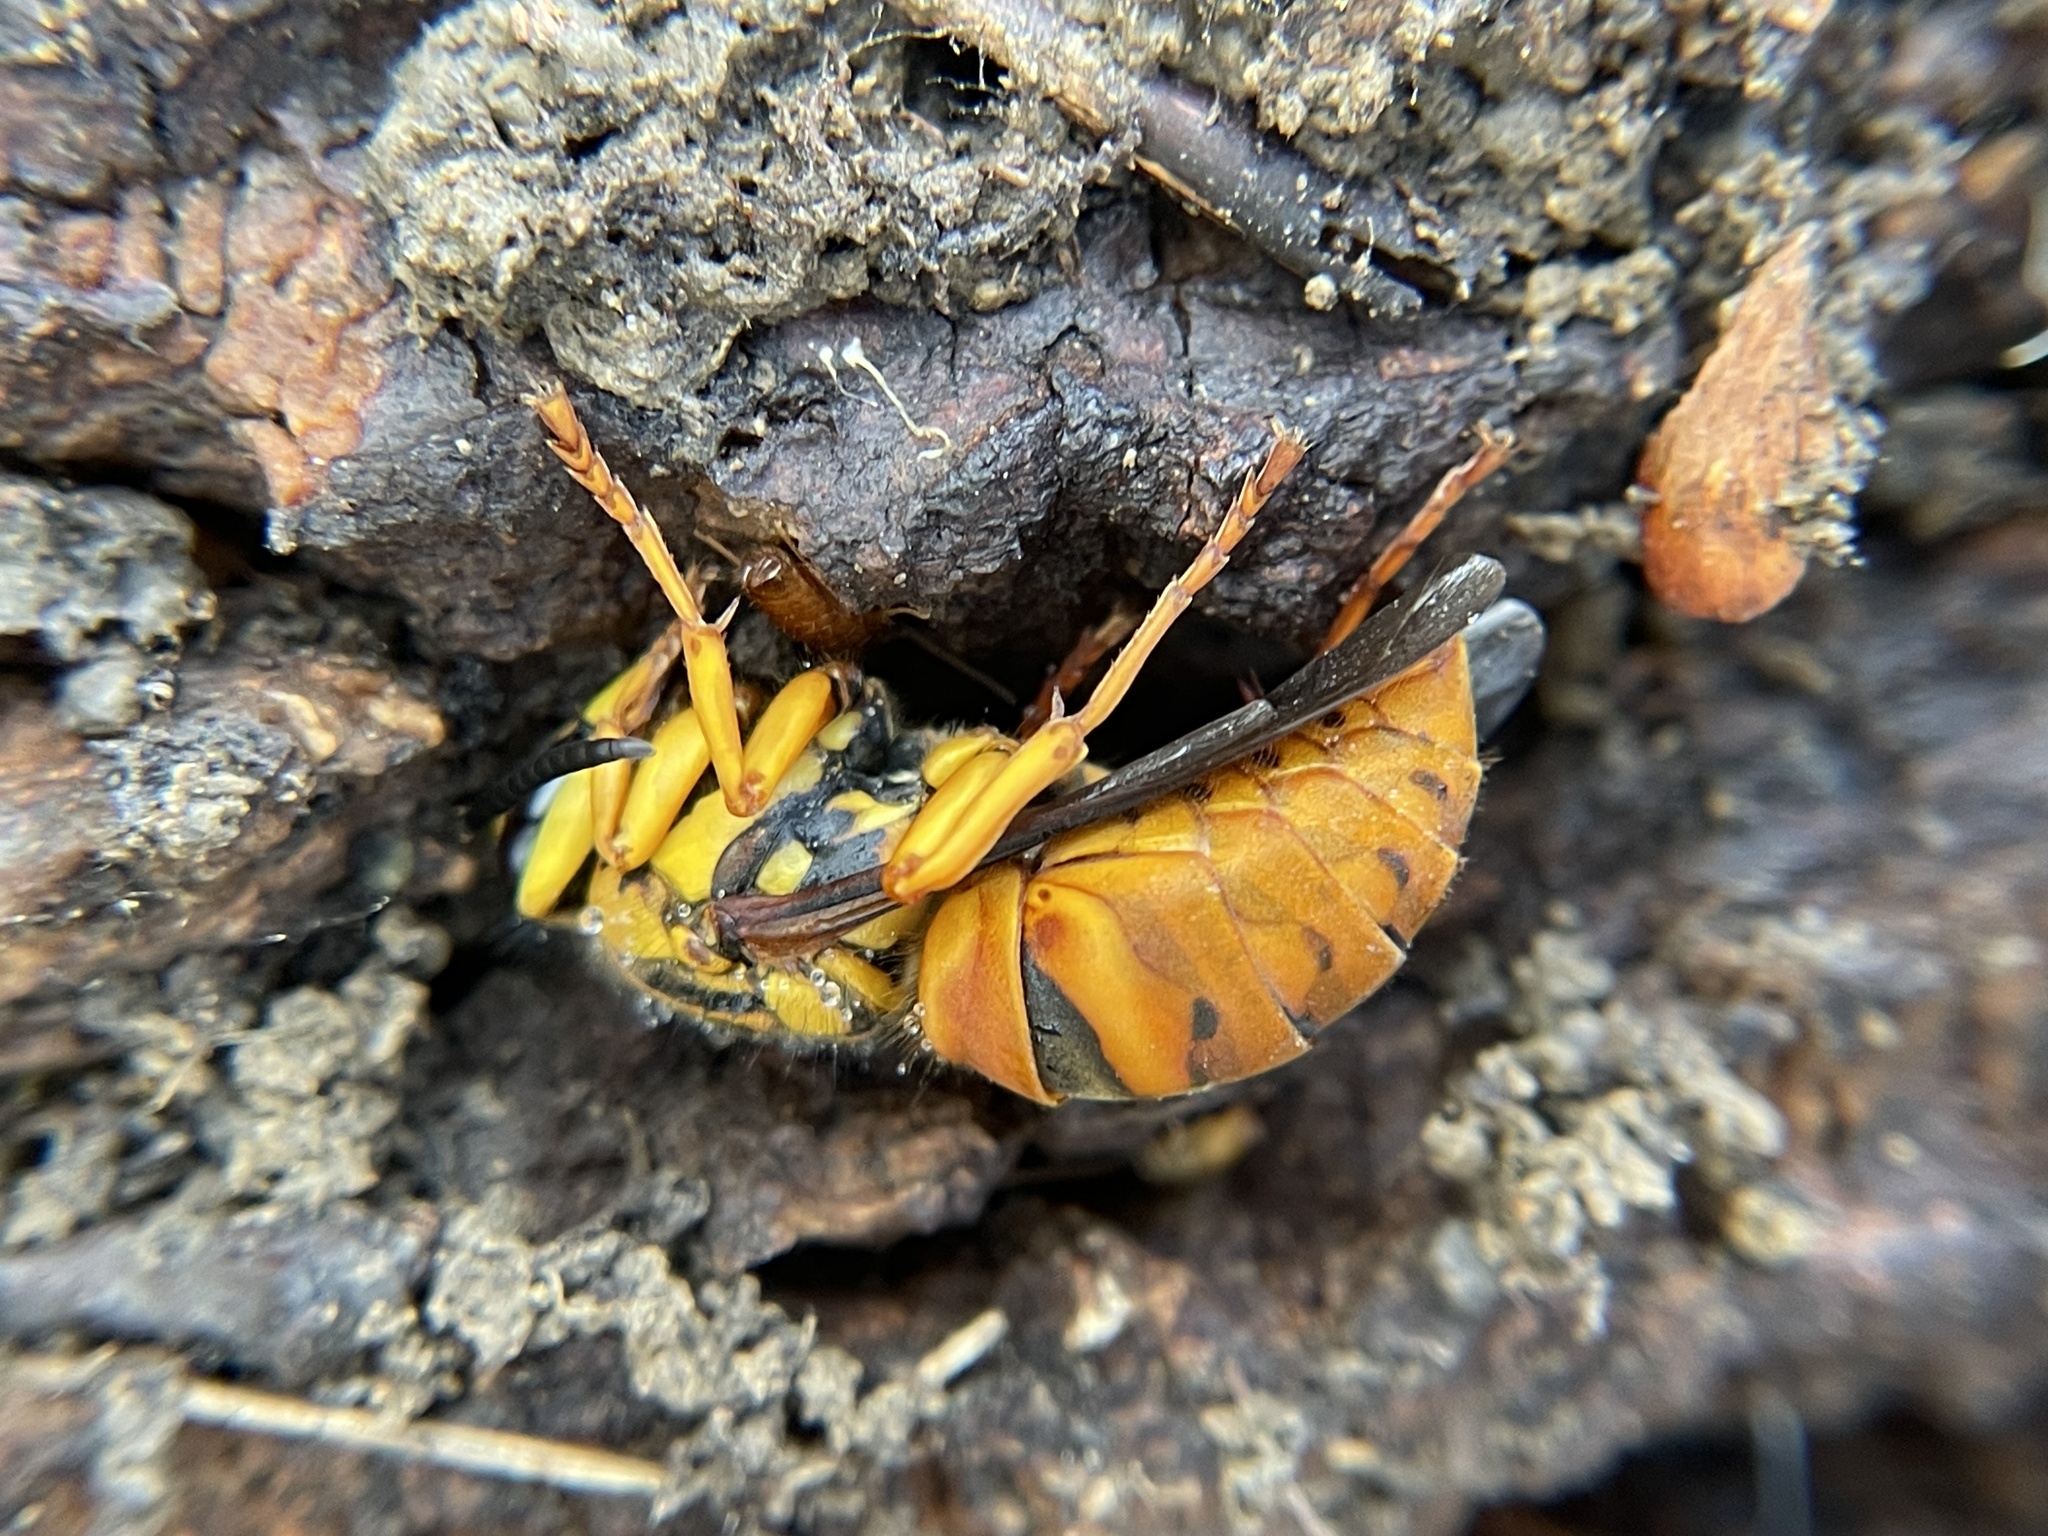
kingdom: Animalia
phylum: Arthropoda
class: Insecta
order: Hymenoptera
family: Vespidae
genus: Vespula
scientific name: Vespula squamosa
